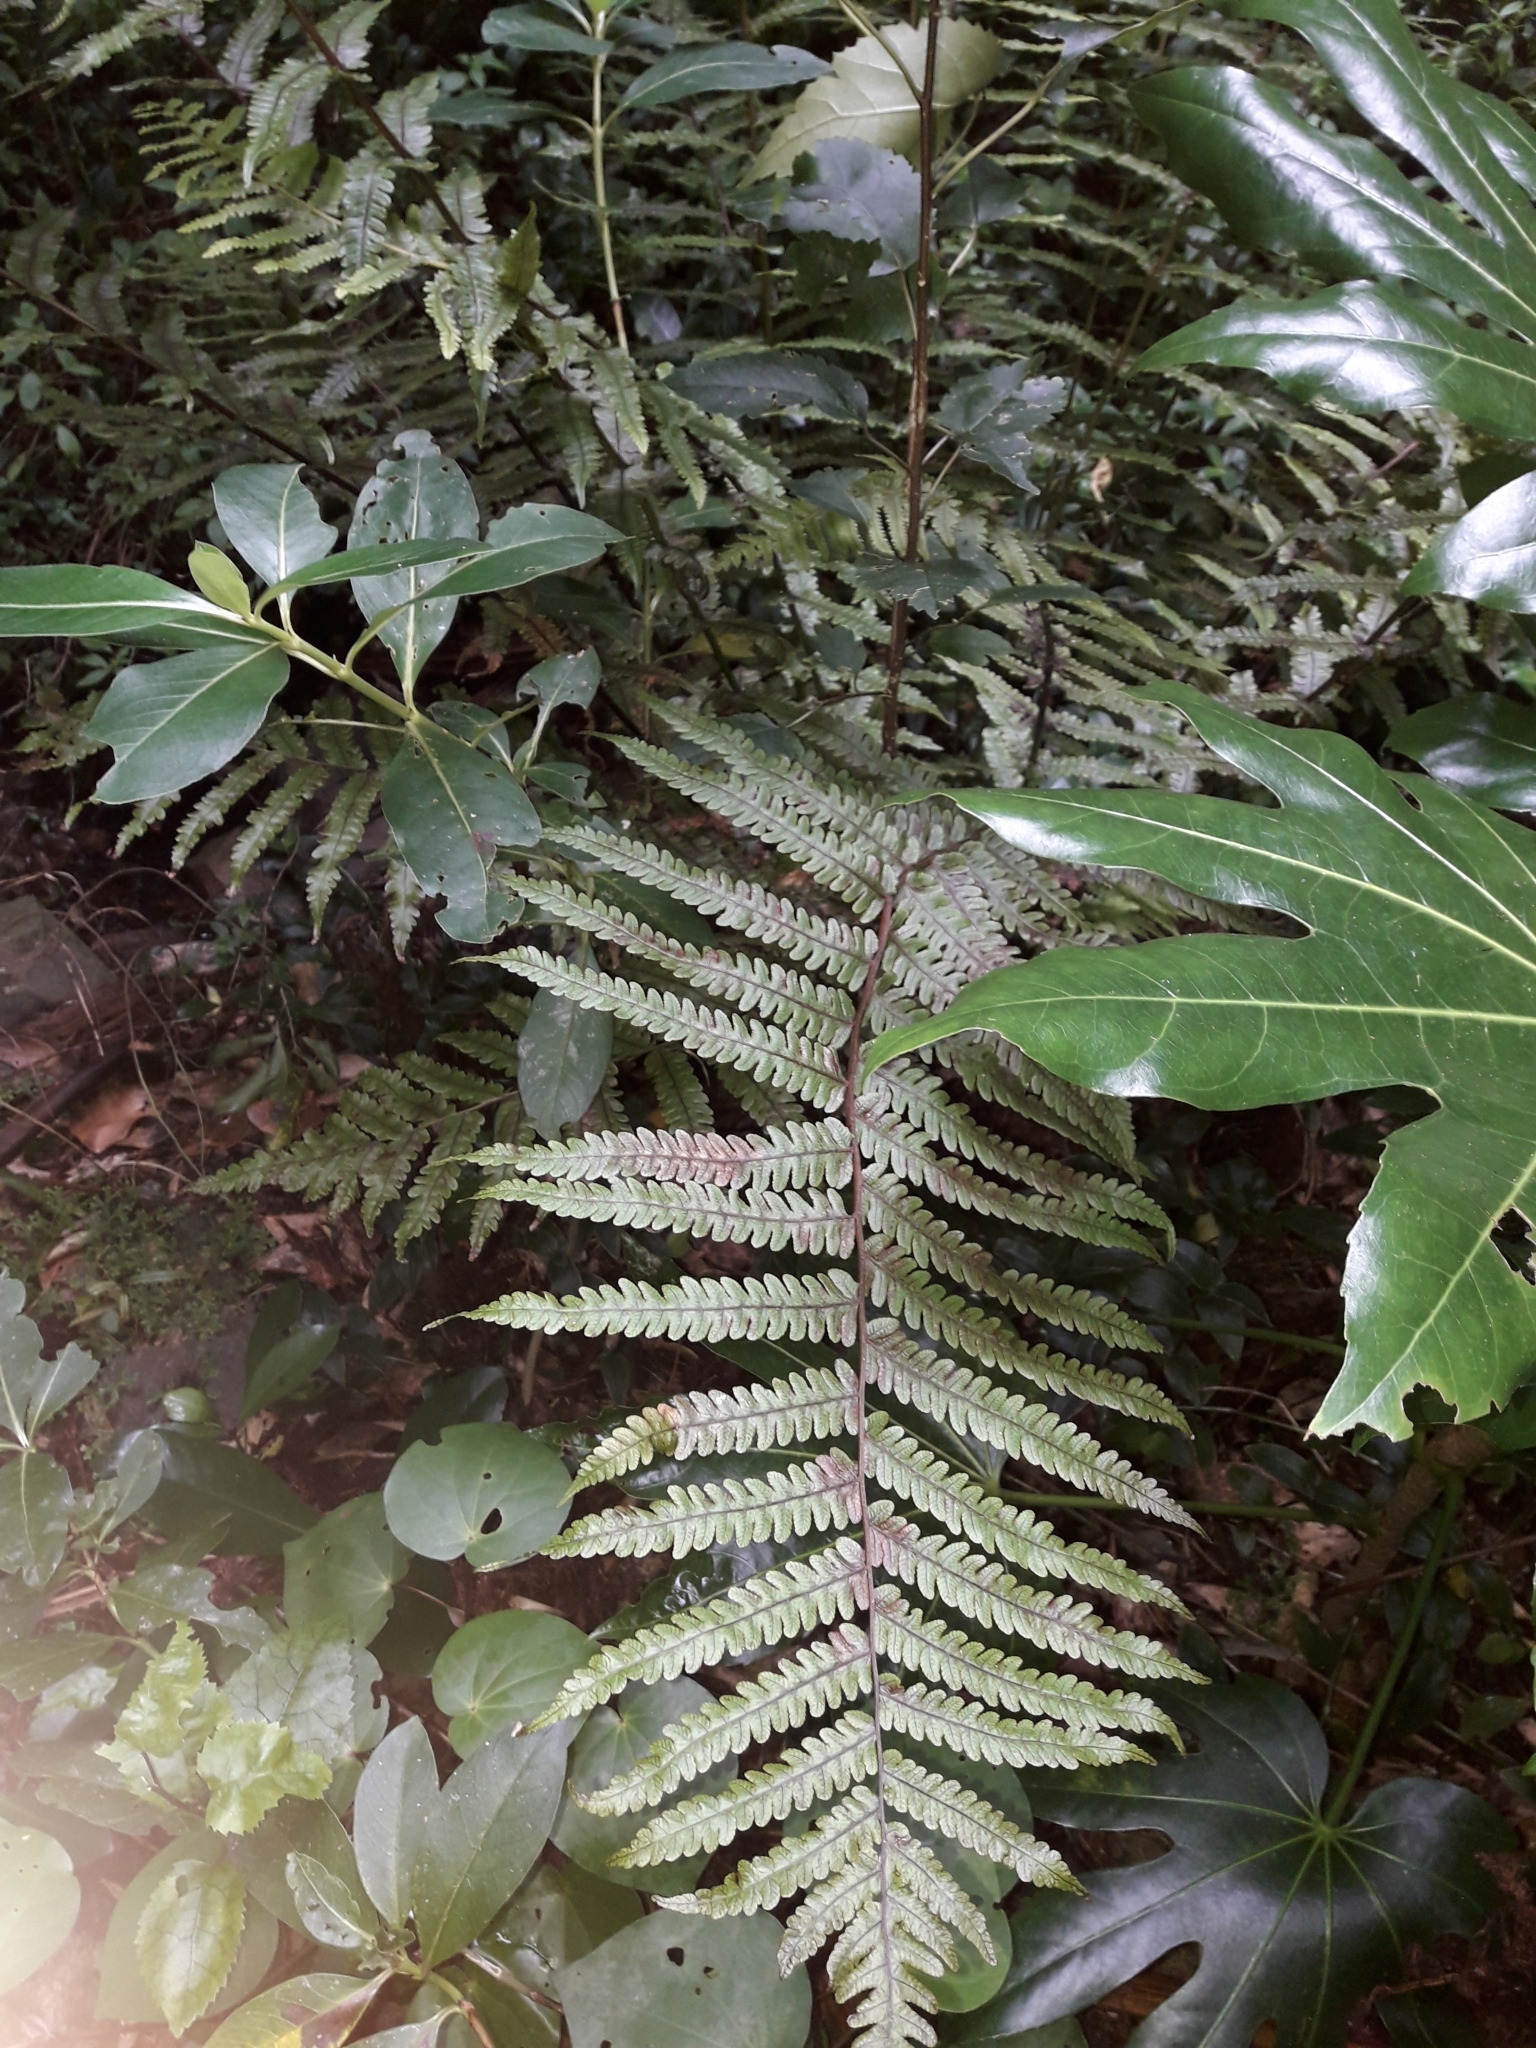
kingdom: Plantae
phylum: Tracheophyta
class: Polypodiopsida
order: Polypodiales
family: Thelypteridaceae
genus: Pakau
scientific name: Pakau pennigera
